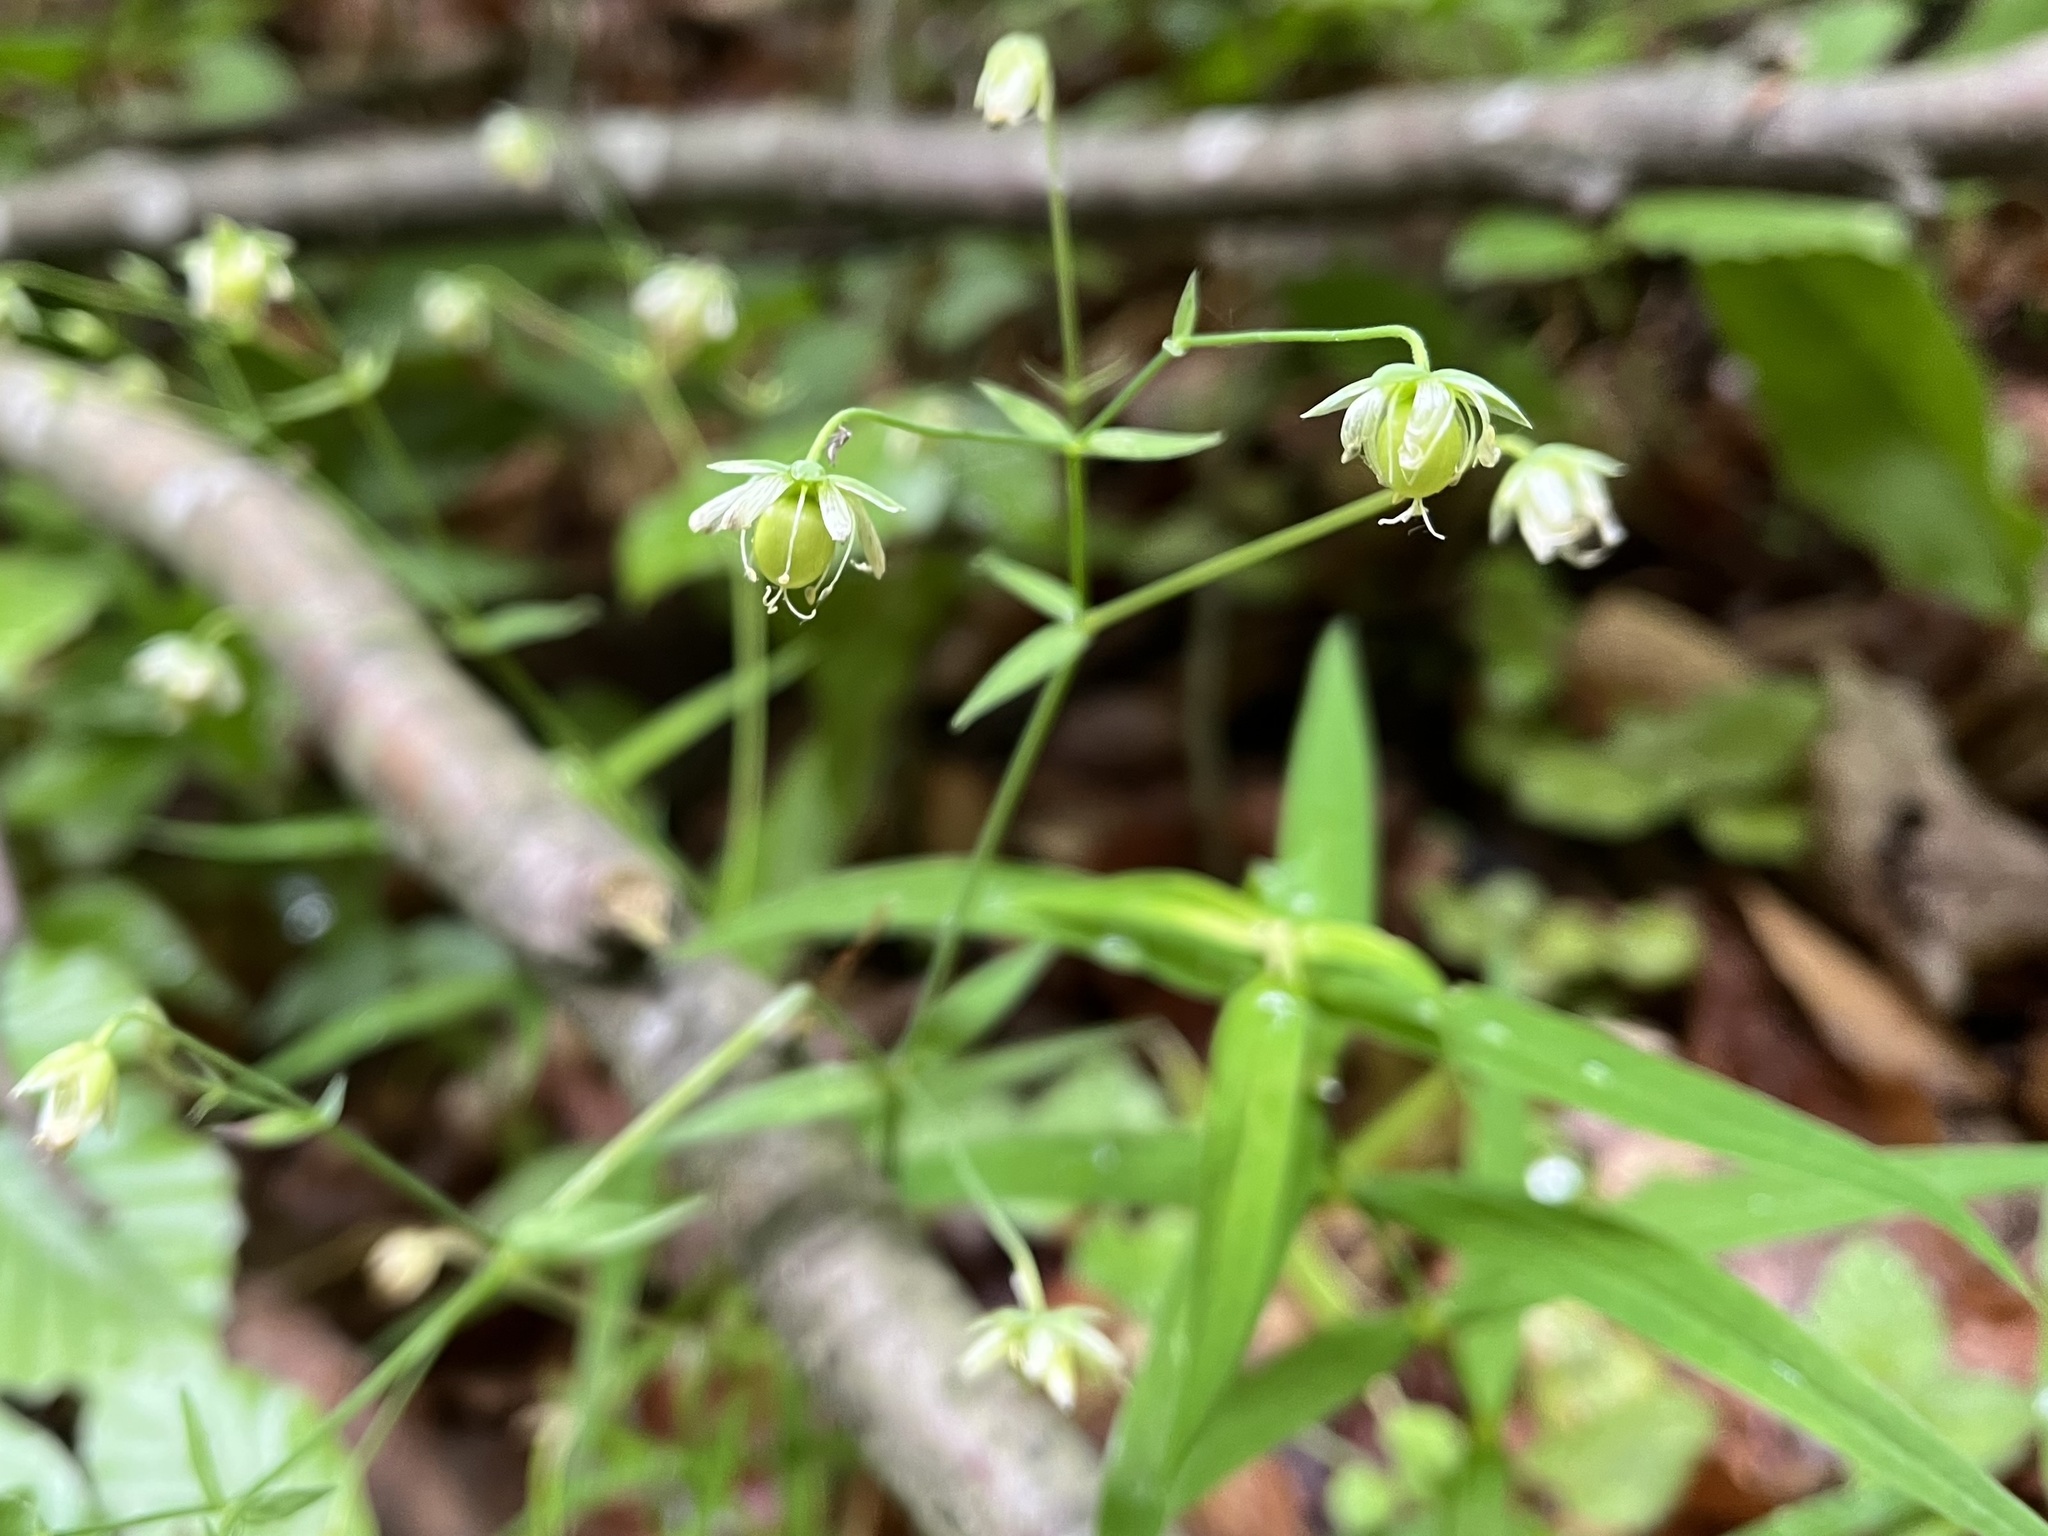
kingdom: Plantae
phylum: Tracheophyta
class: Magnoliopsida
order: Caryophyllales
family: Caryophyllaceae
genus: Rabelera
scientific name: Rabelera holostea
